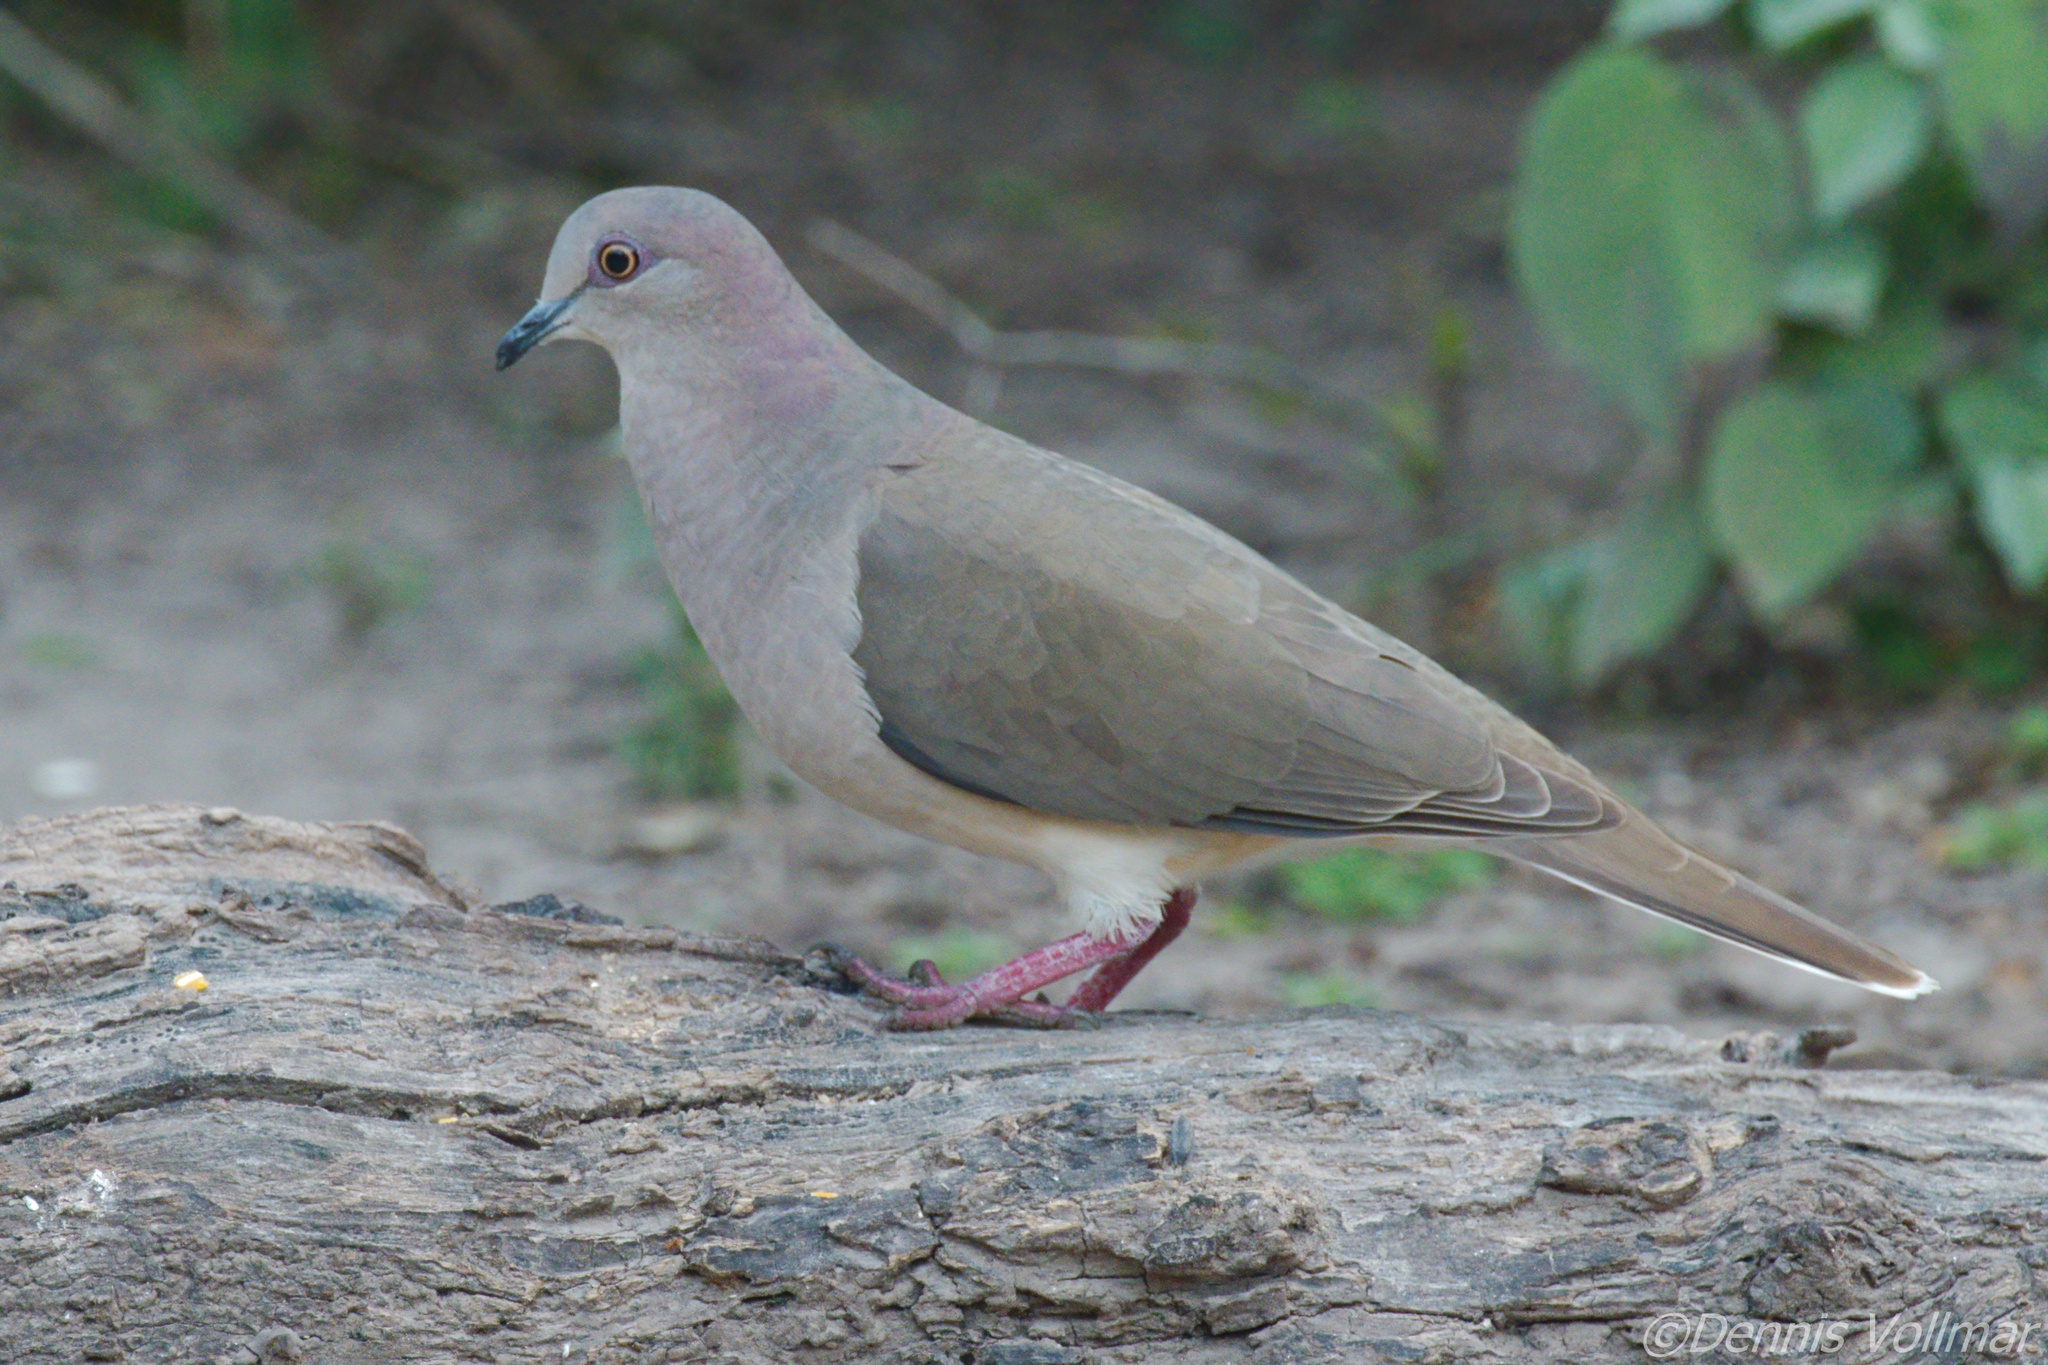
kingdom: Animalia
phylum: Chordata
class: Aves
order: Columbiformes
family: Columbidae
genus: Leptotila
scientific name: Leptotila verreauxi
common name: White-tipped dove
